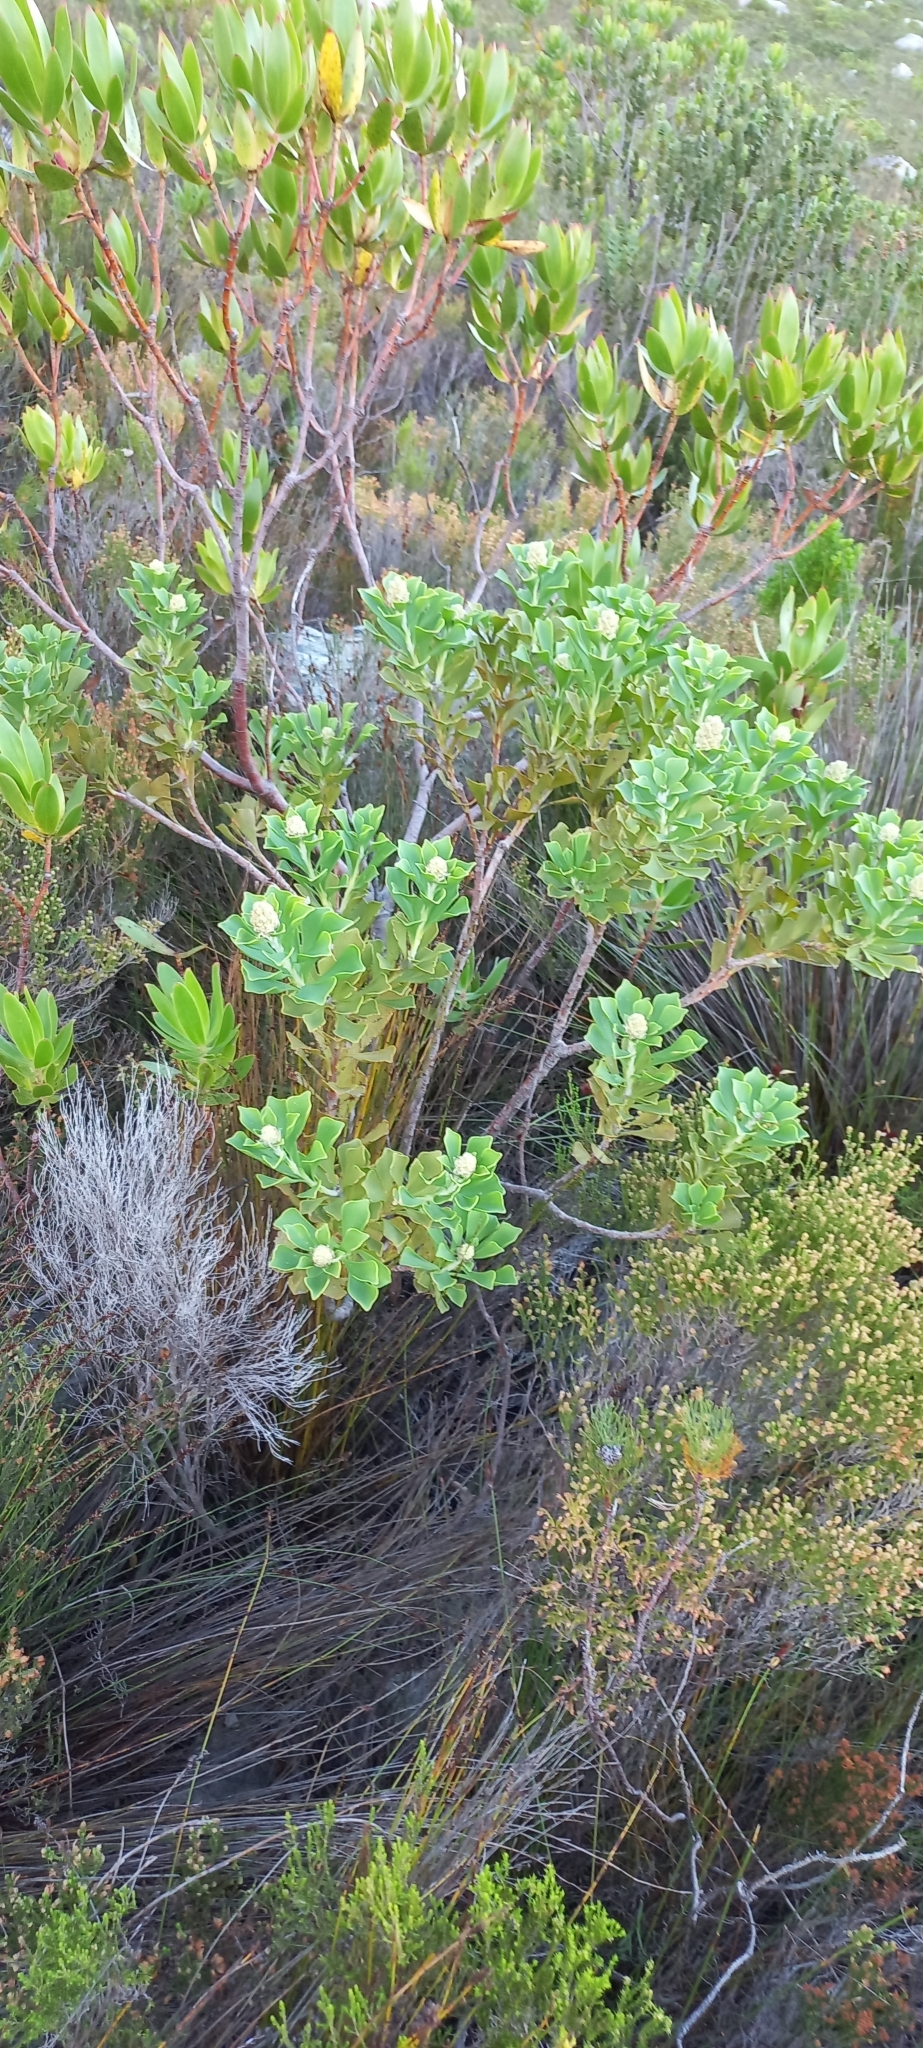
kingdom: Plantae
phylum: Tracheophyta
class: Magnoliopsida
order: Proteales
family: Proteaceae
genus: Paranomus
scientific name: Paranomus sceptrum-gustavianus
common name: King gustav's sceptre
